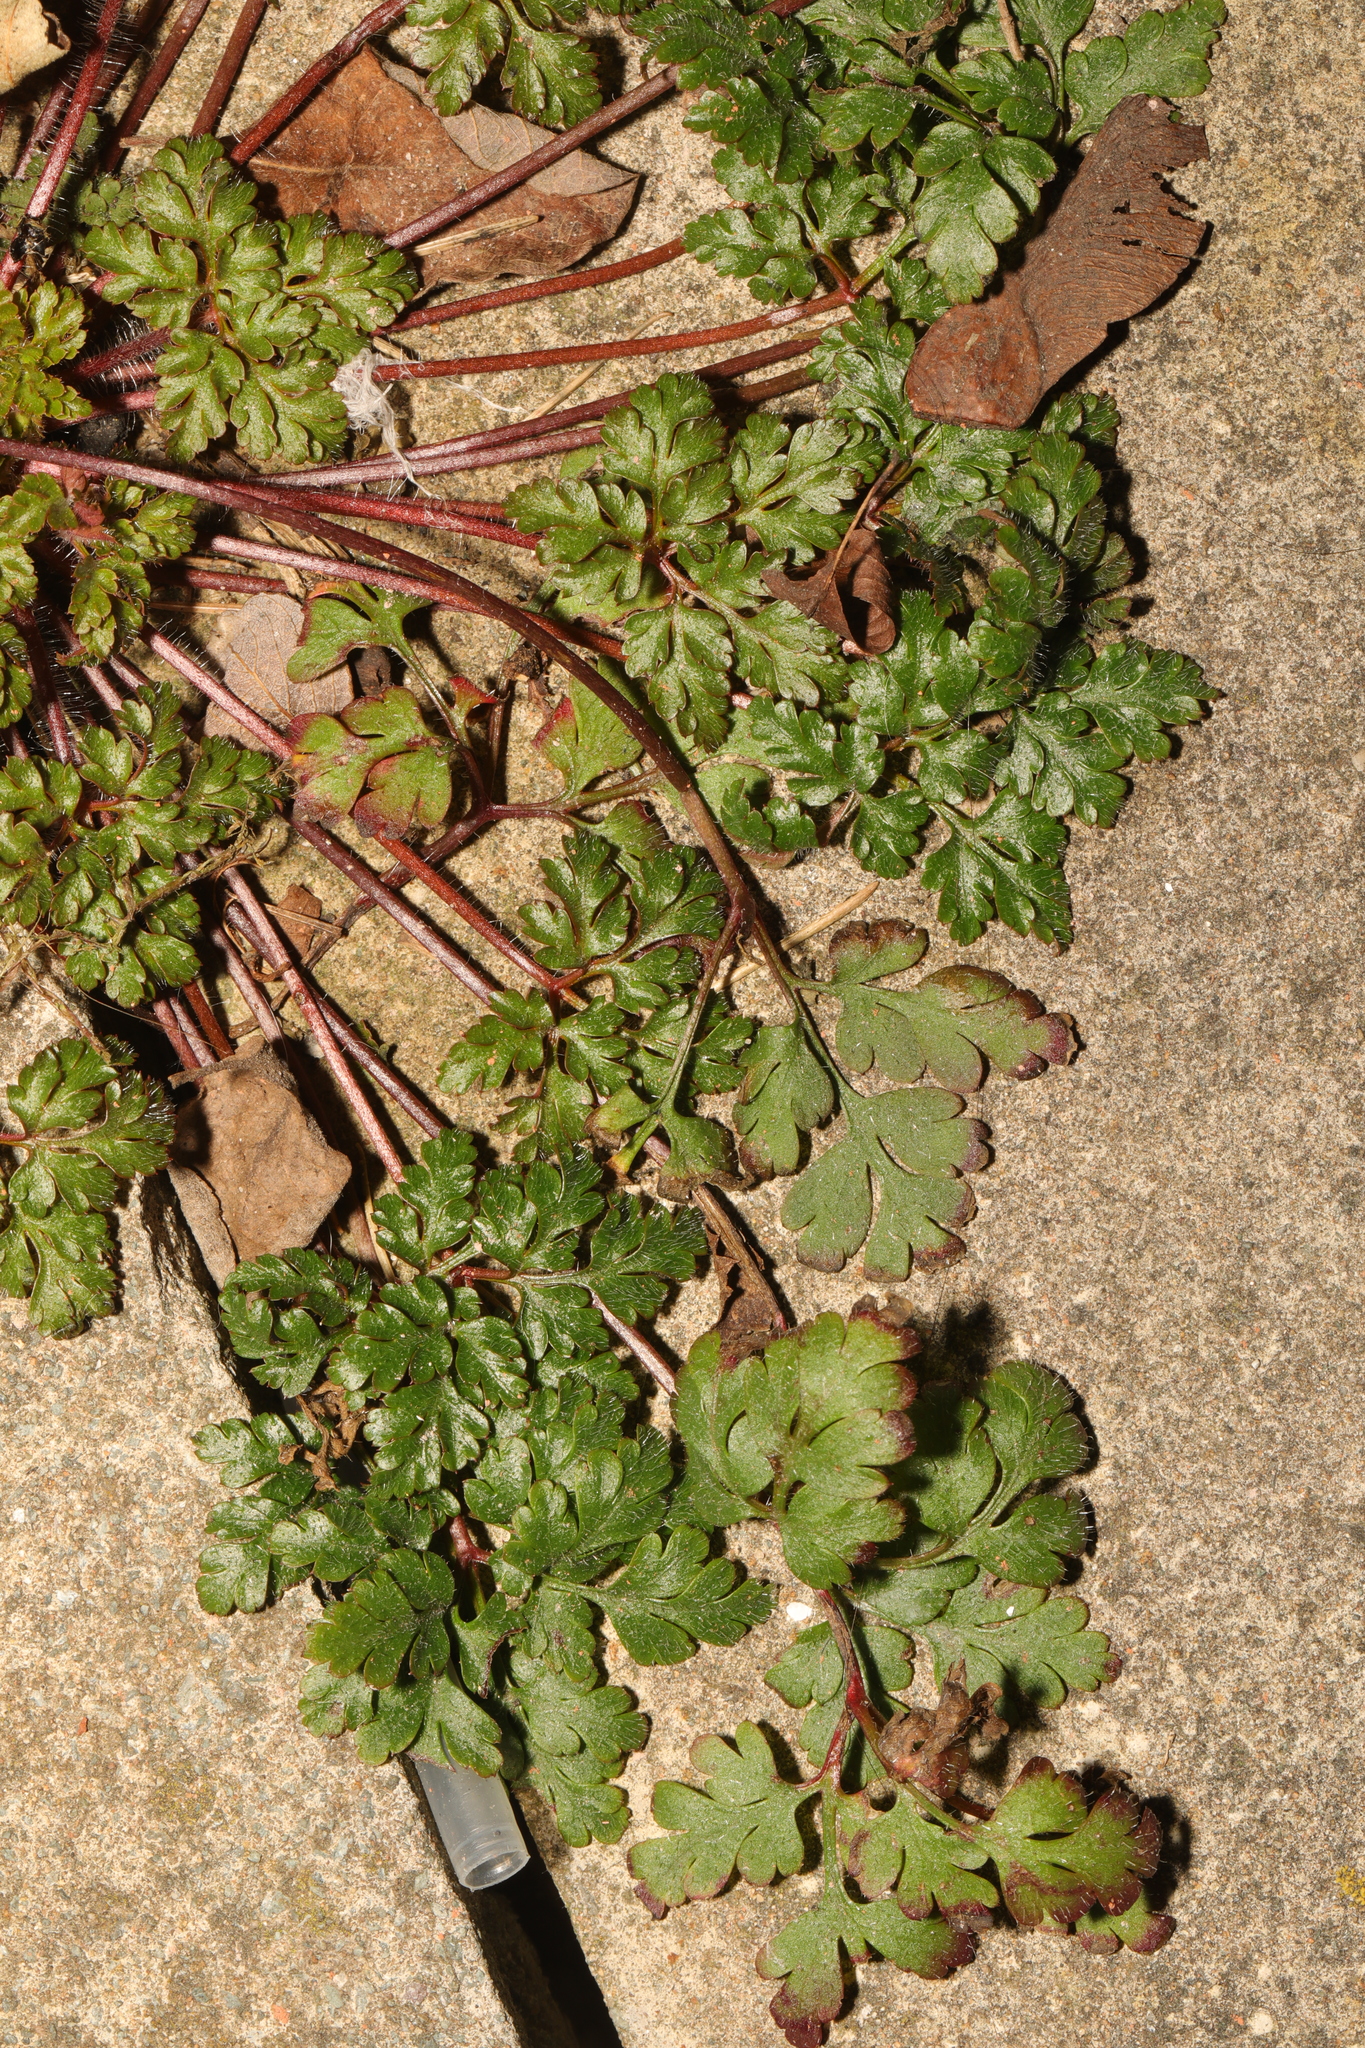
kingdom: Plantae
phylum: Tracheophyta
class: Magnoliopsida
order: Geraniales
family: Geraniaceae
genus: Geranium
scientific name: Geranium robertianum
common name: Herb-robert
